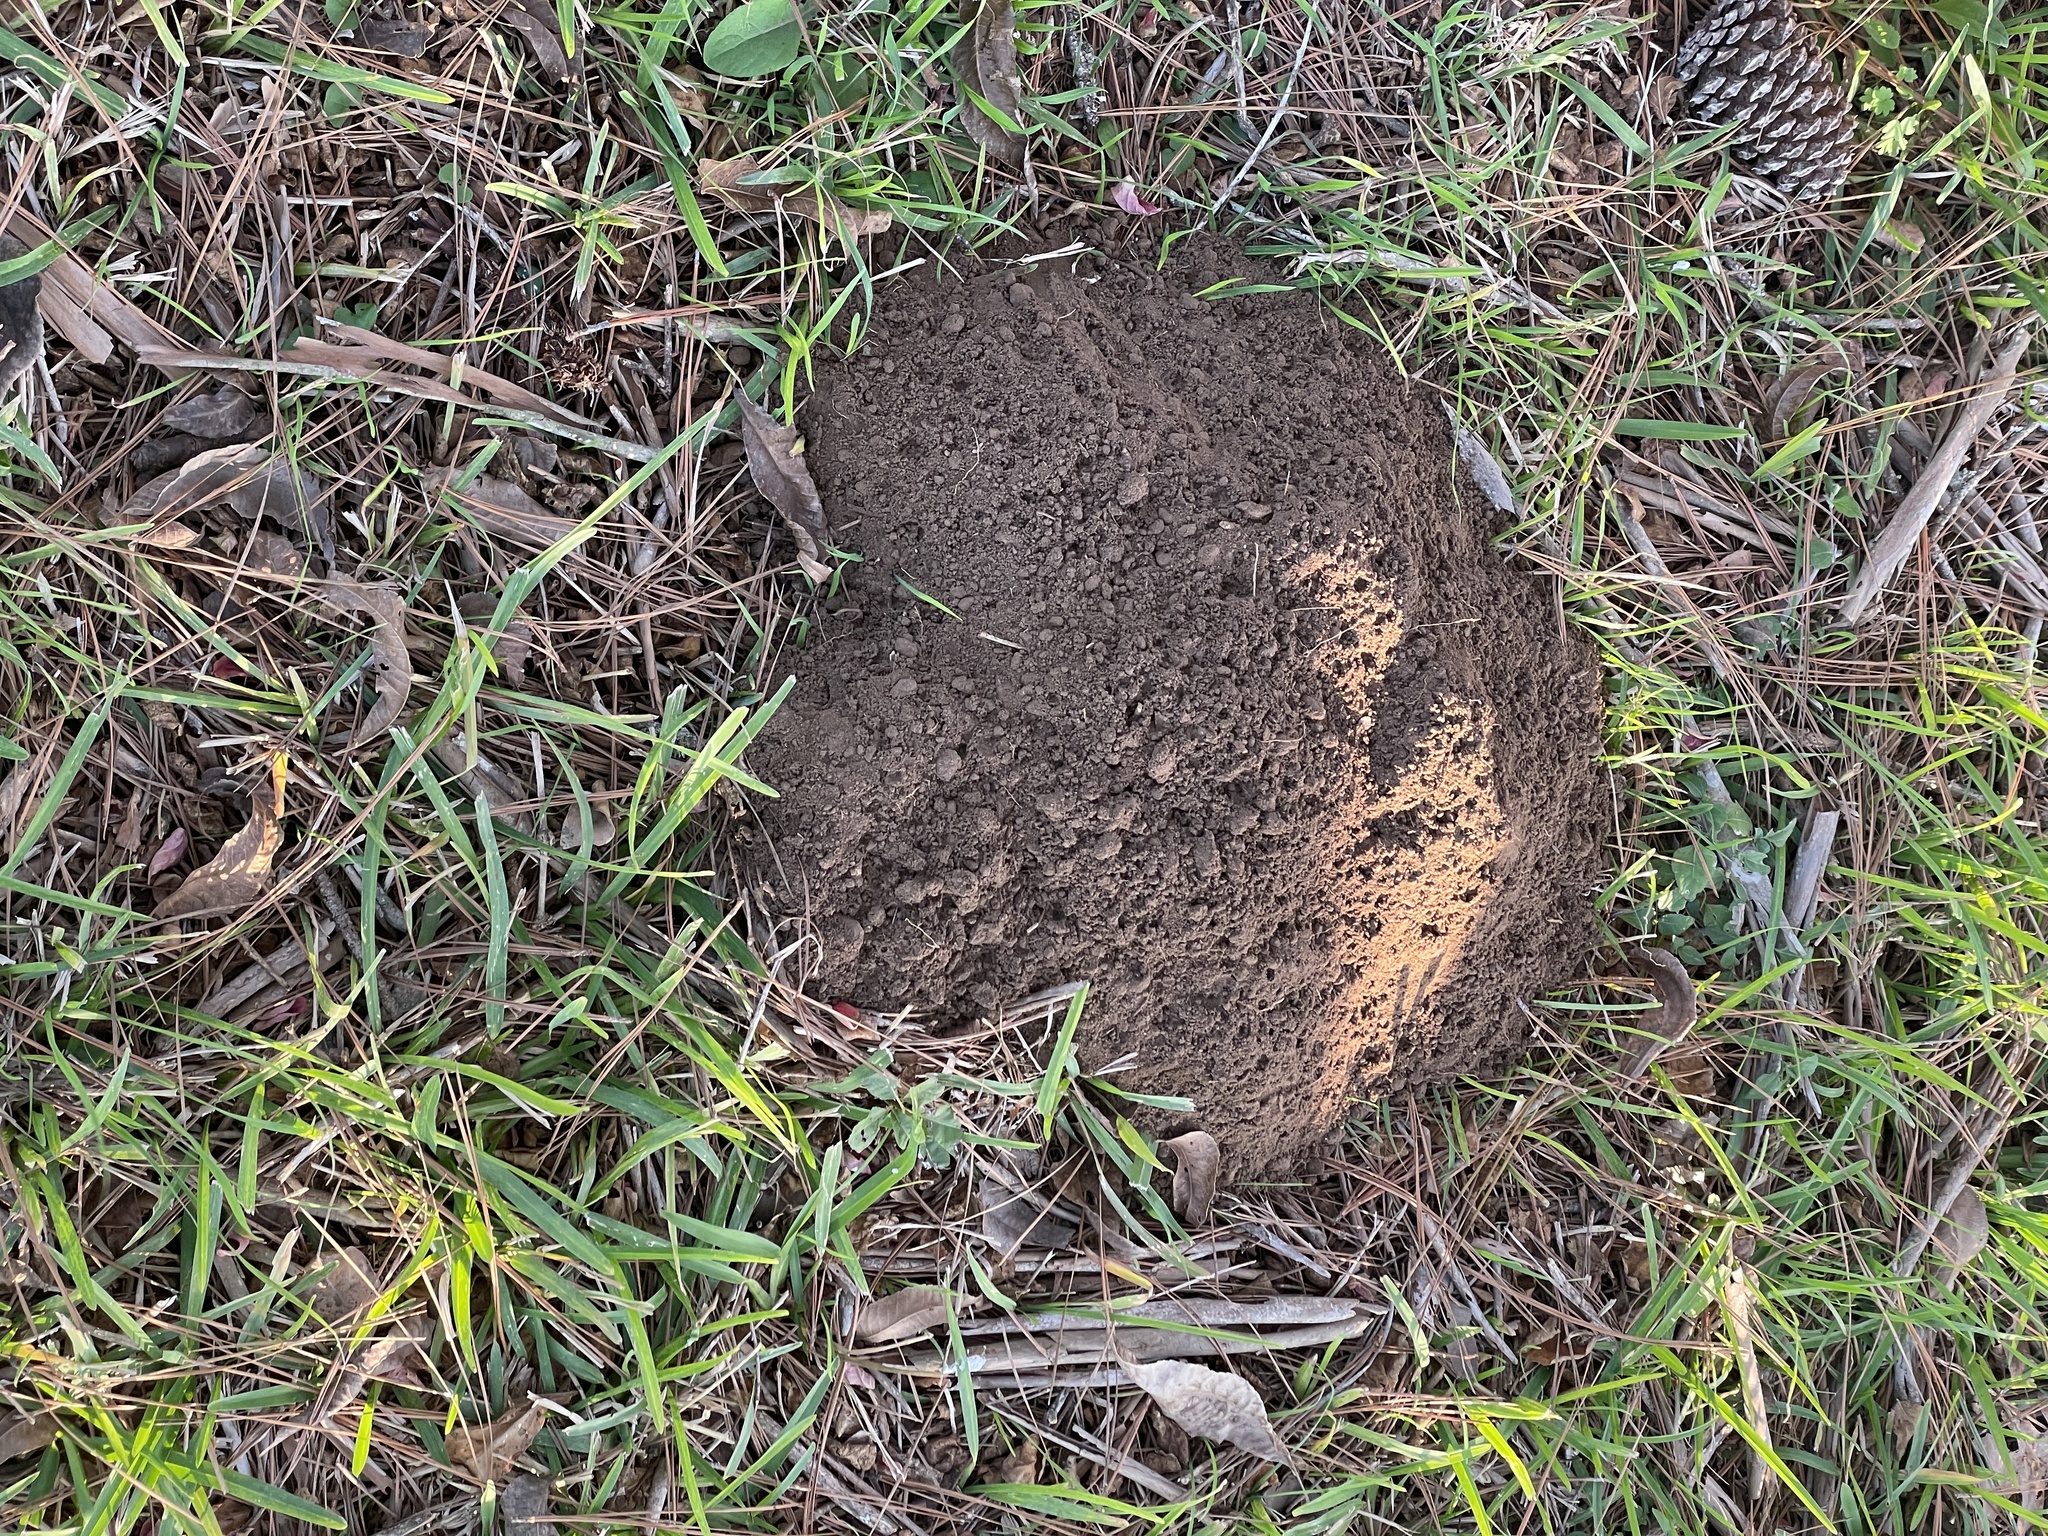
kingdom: Animalia
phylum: Chordata
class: Mammalia
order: Rodentia
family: Geomyidae
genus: Geomys
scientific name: Geomys attwateri
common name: Attwater's pocket gopher
